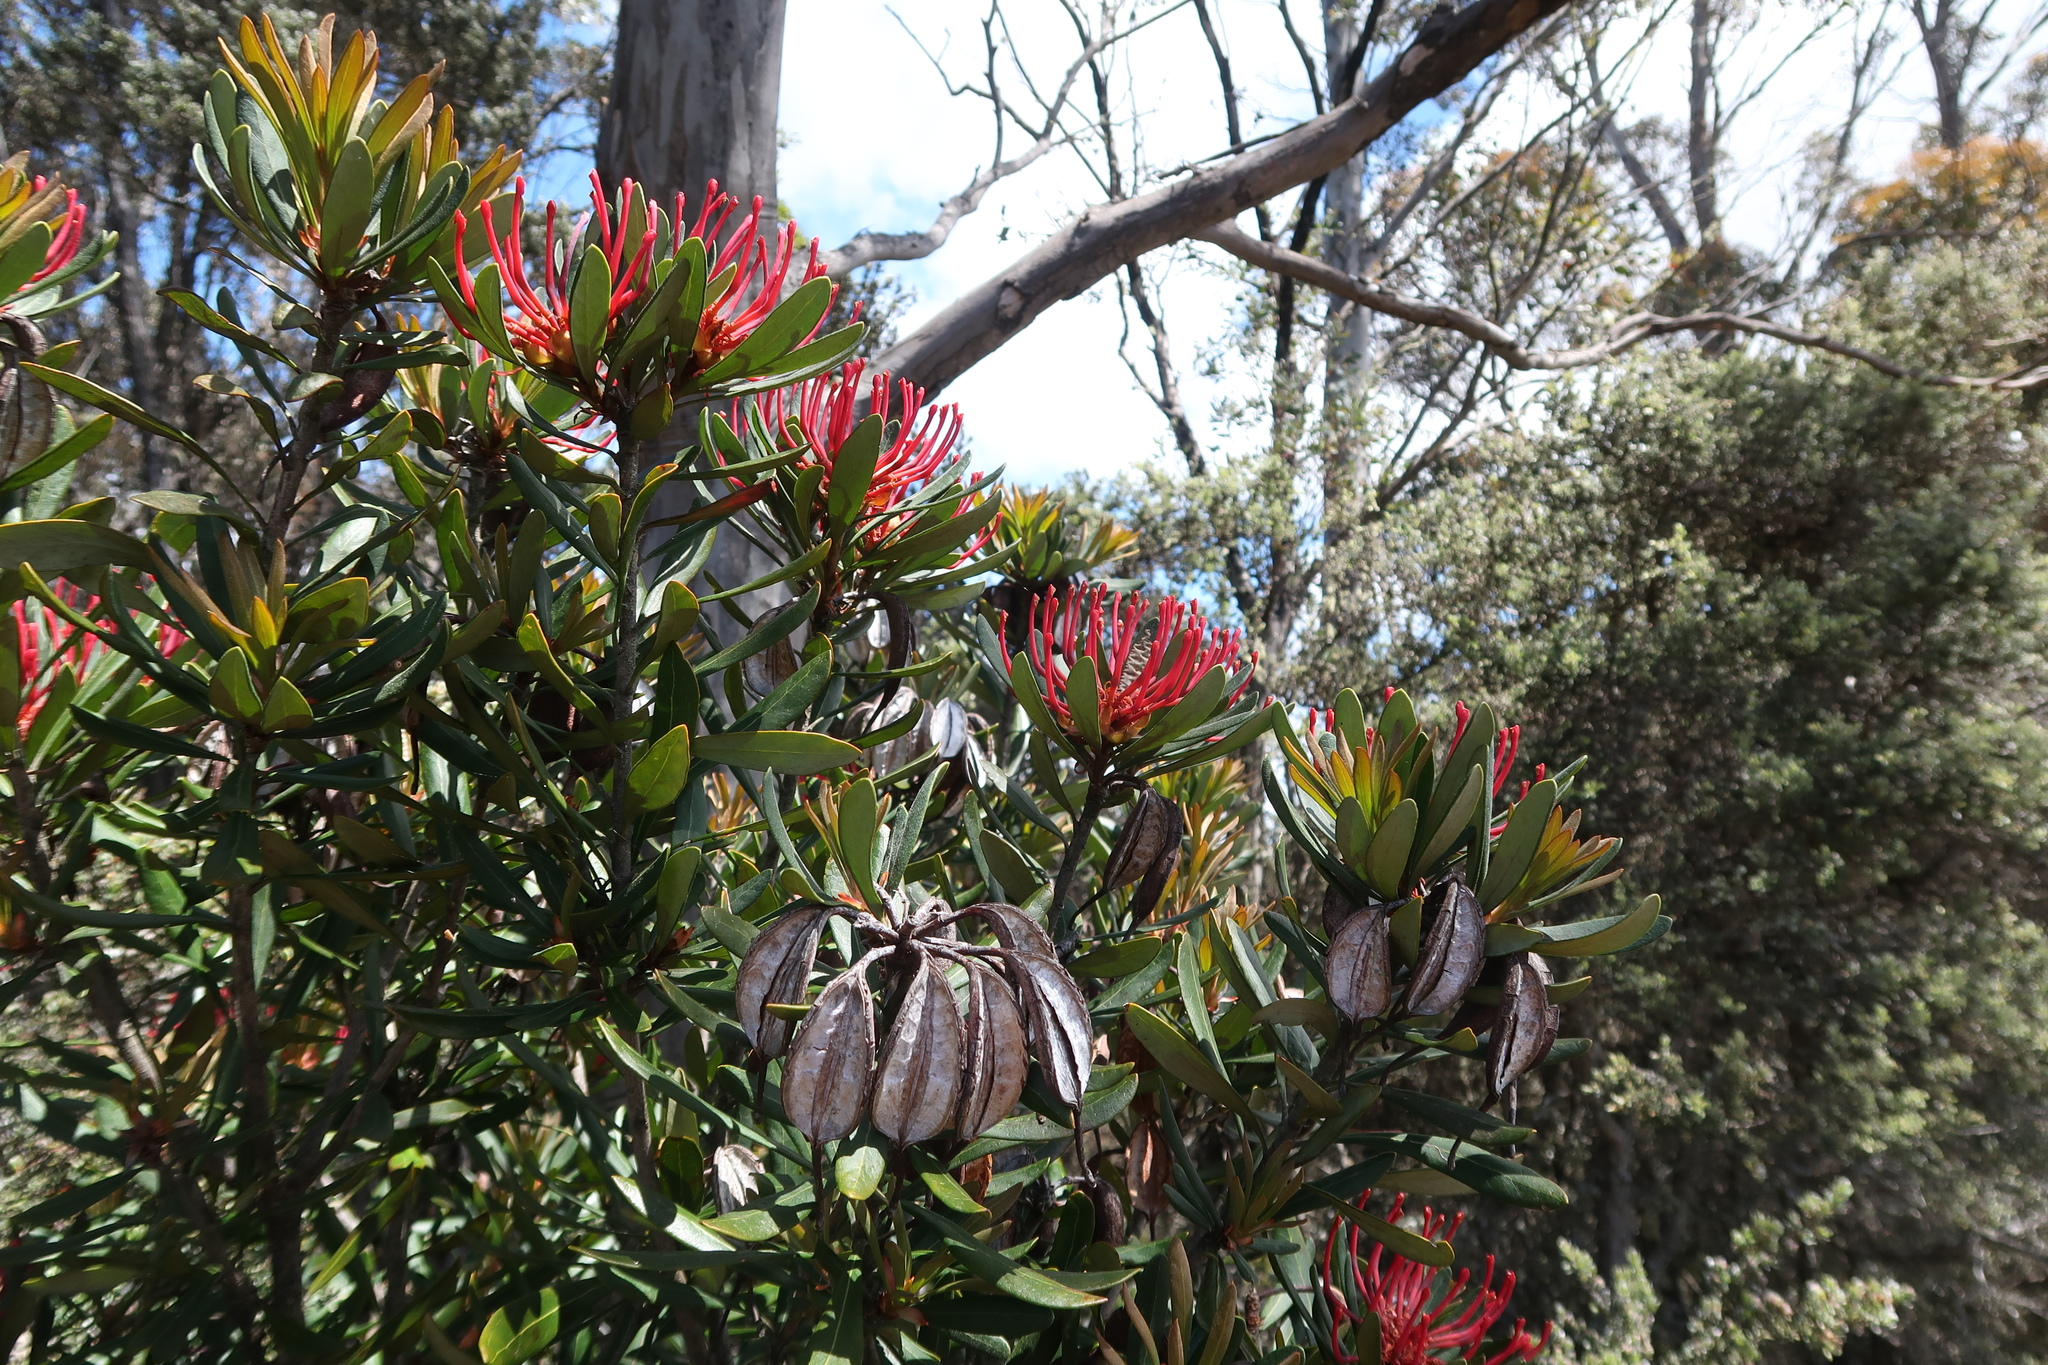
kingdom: Plantae
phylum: Tracheophyta
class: Magnoliopsida
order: Proteales
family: Proteaceae
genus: Telopea
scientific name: Telopea truncata
